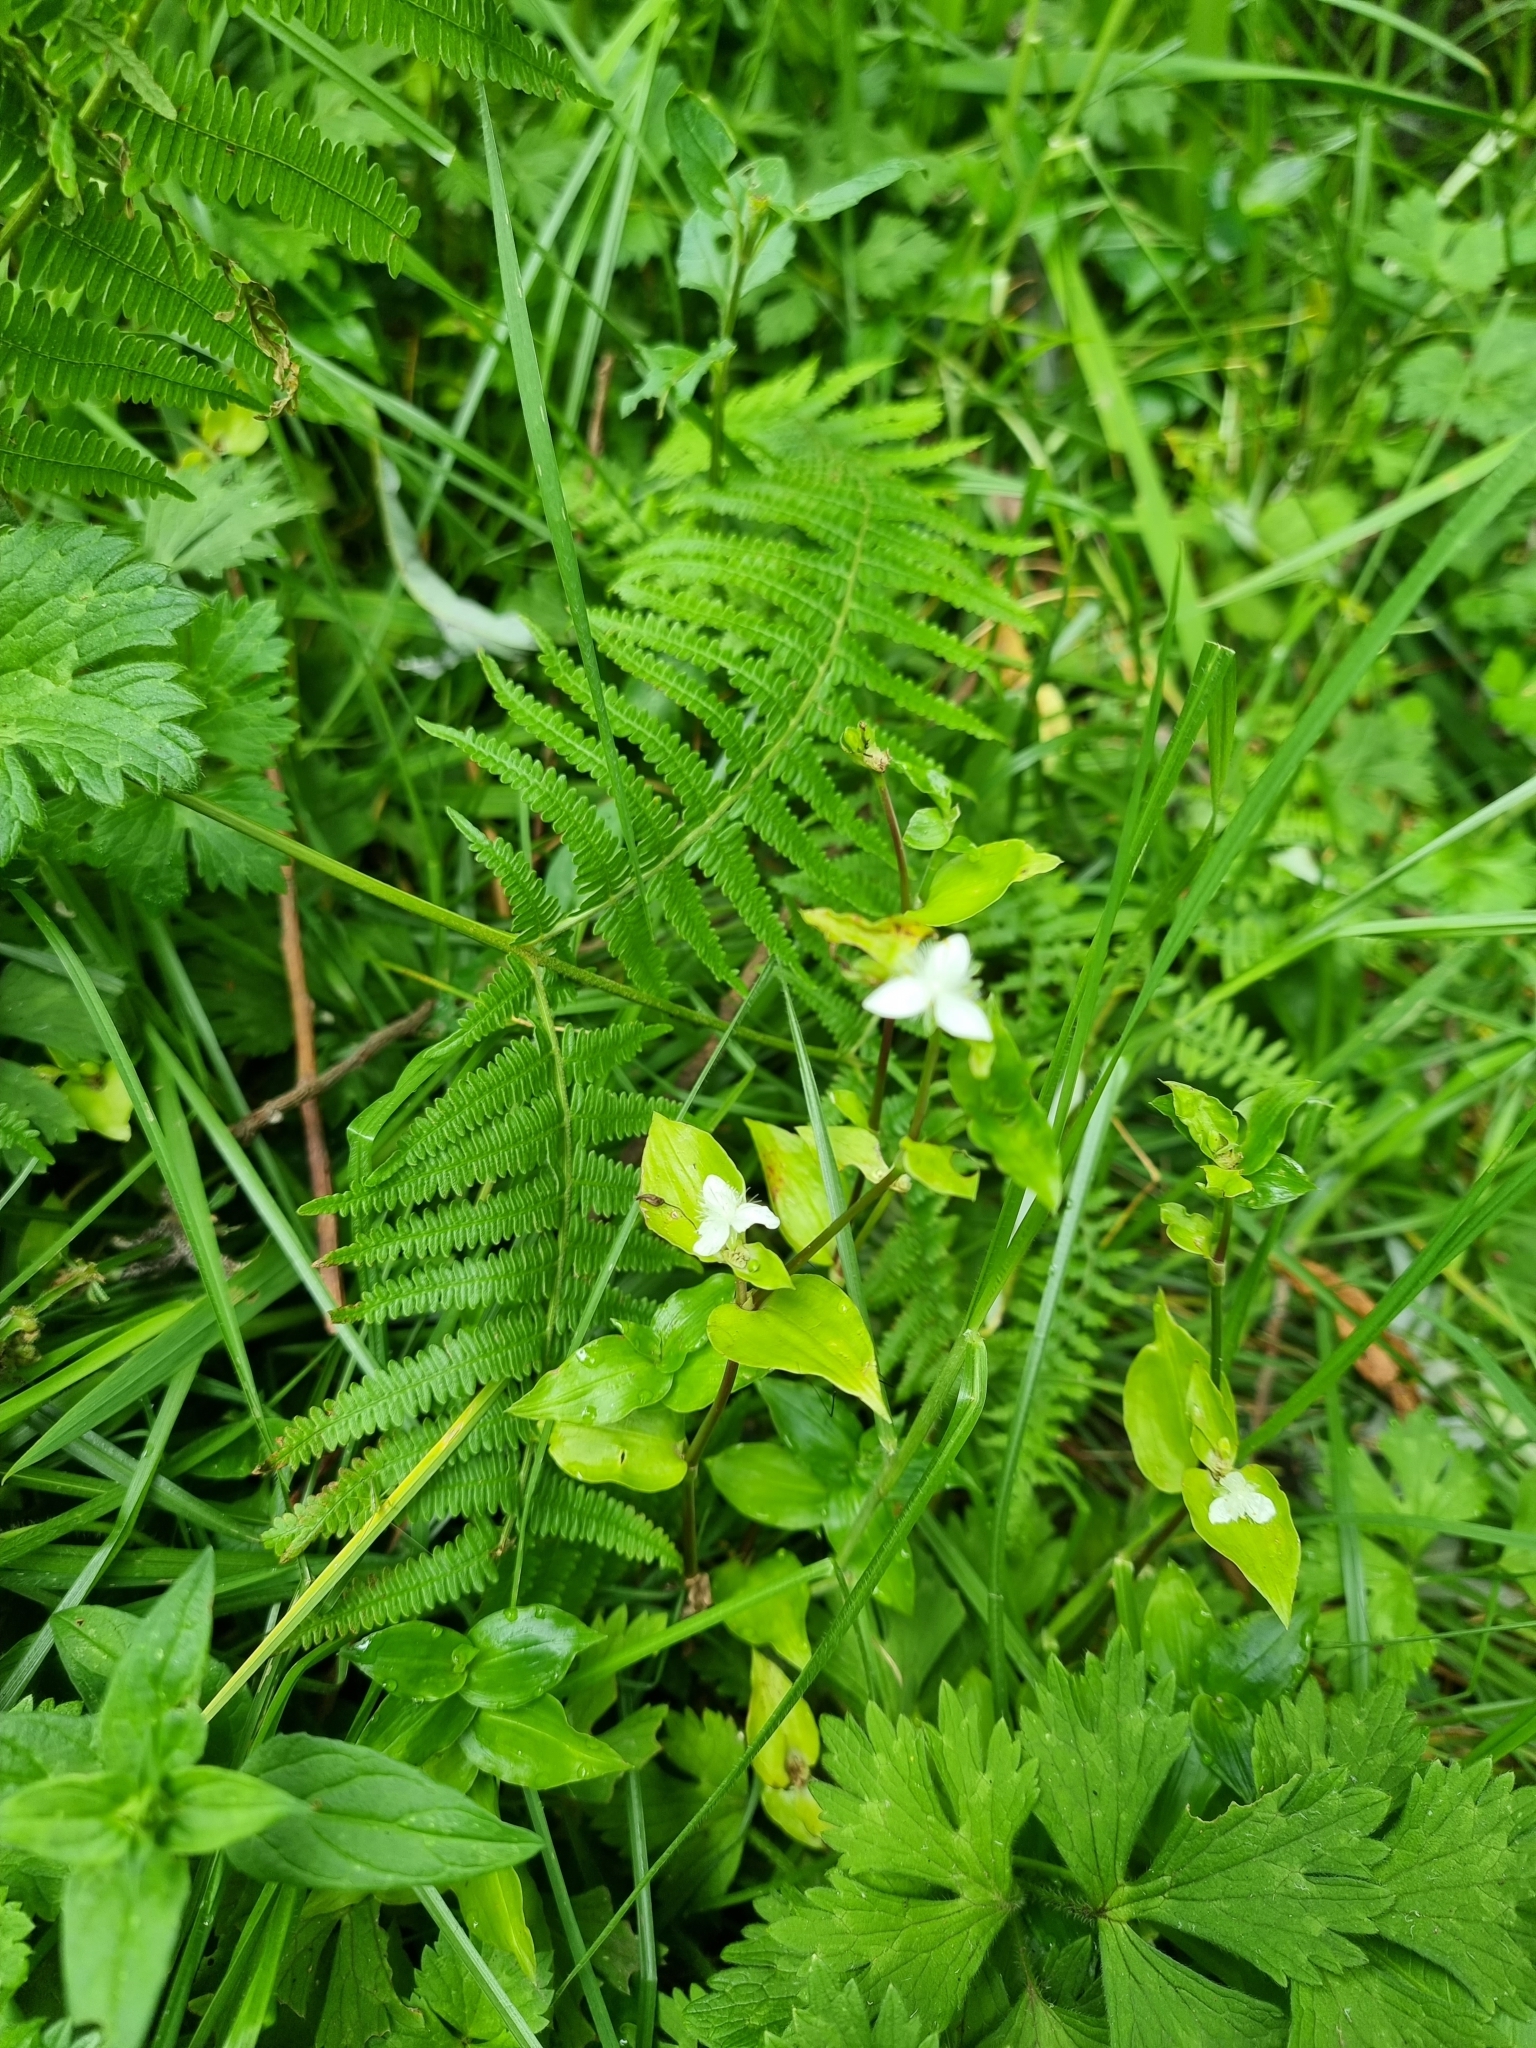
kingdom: Plantae
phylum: Tracheophyta
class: Liliopsida
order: Commelinales
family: Commelinaceae
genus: Tradescantia
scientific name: Tradescantia fluminensis
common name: Wandering-jew
